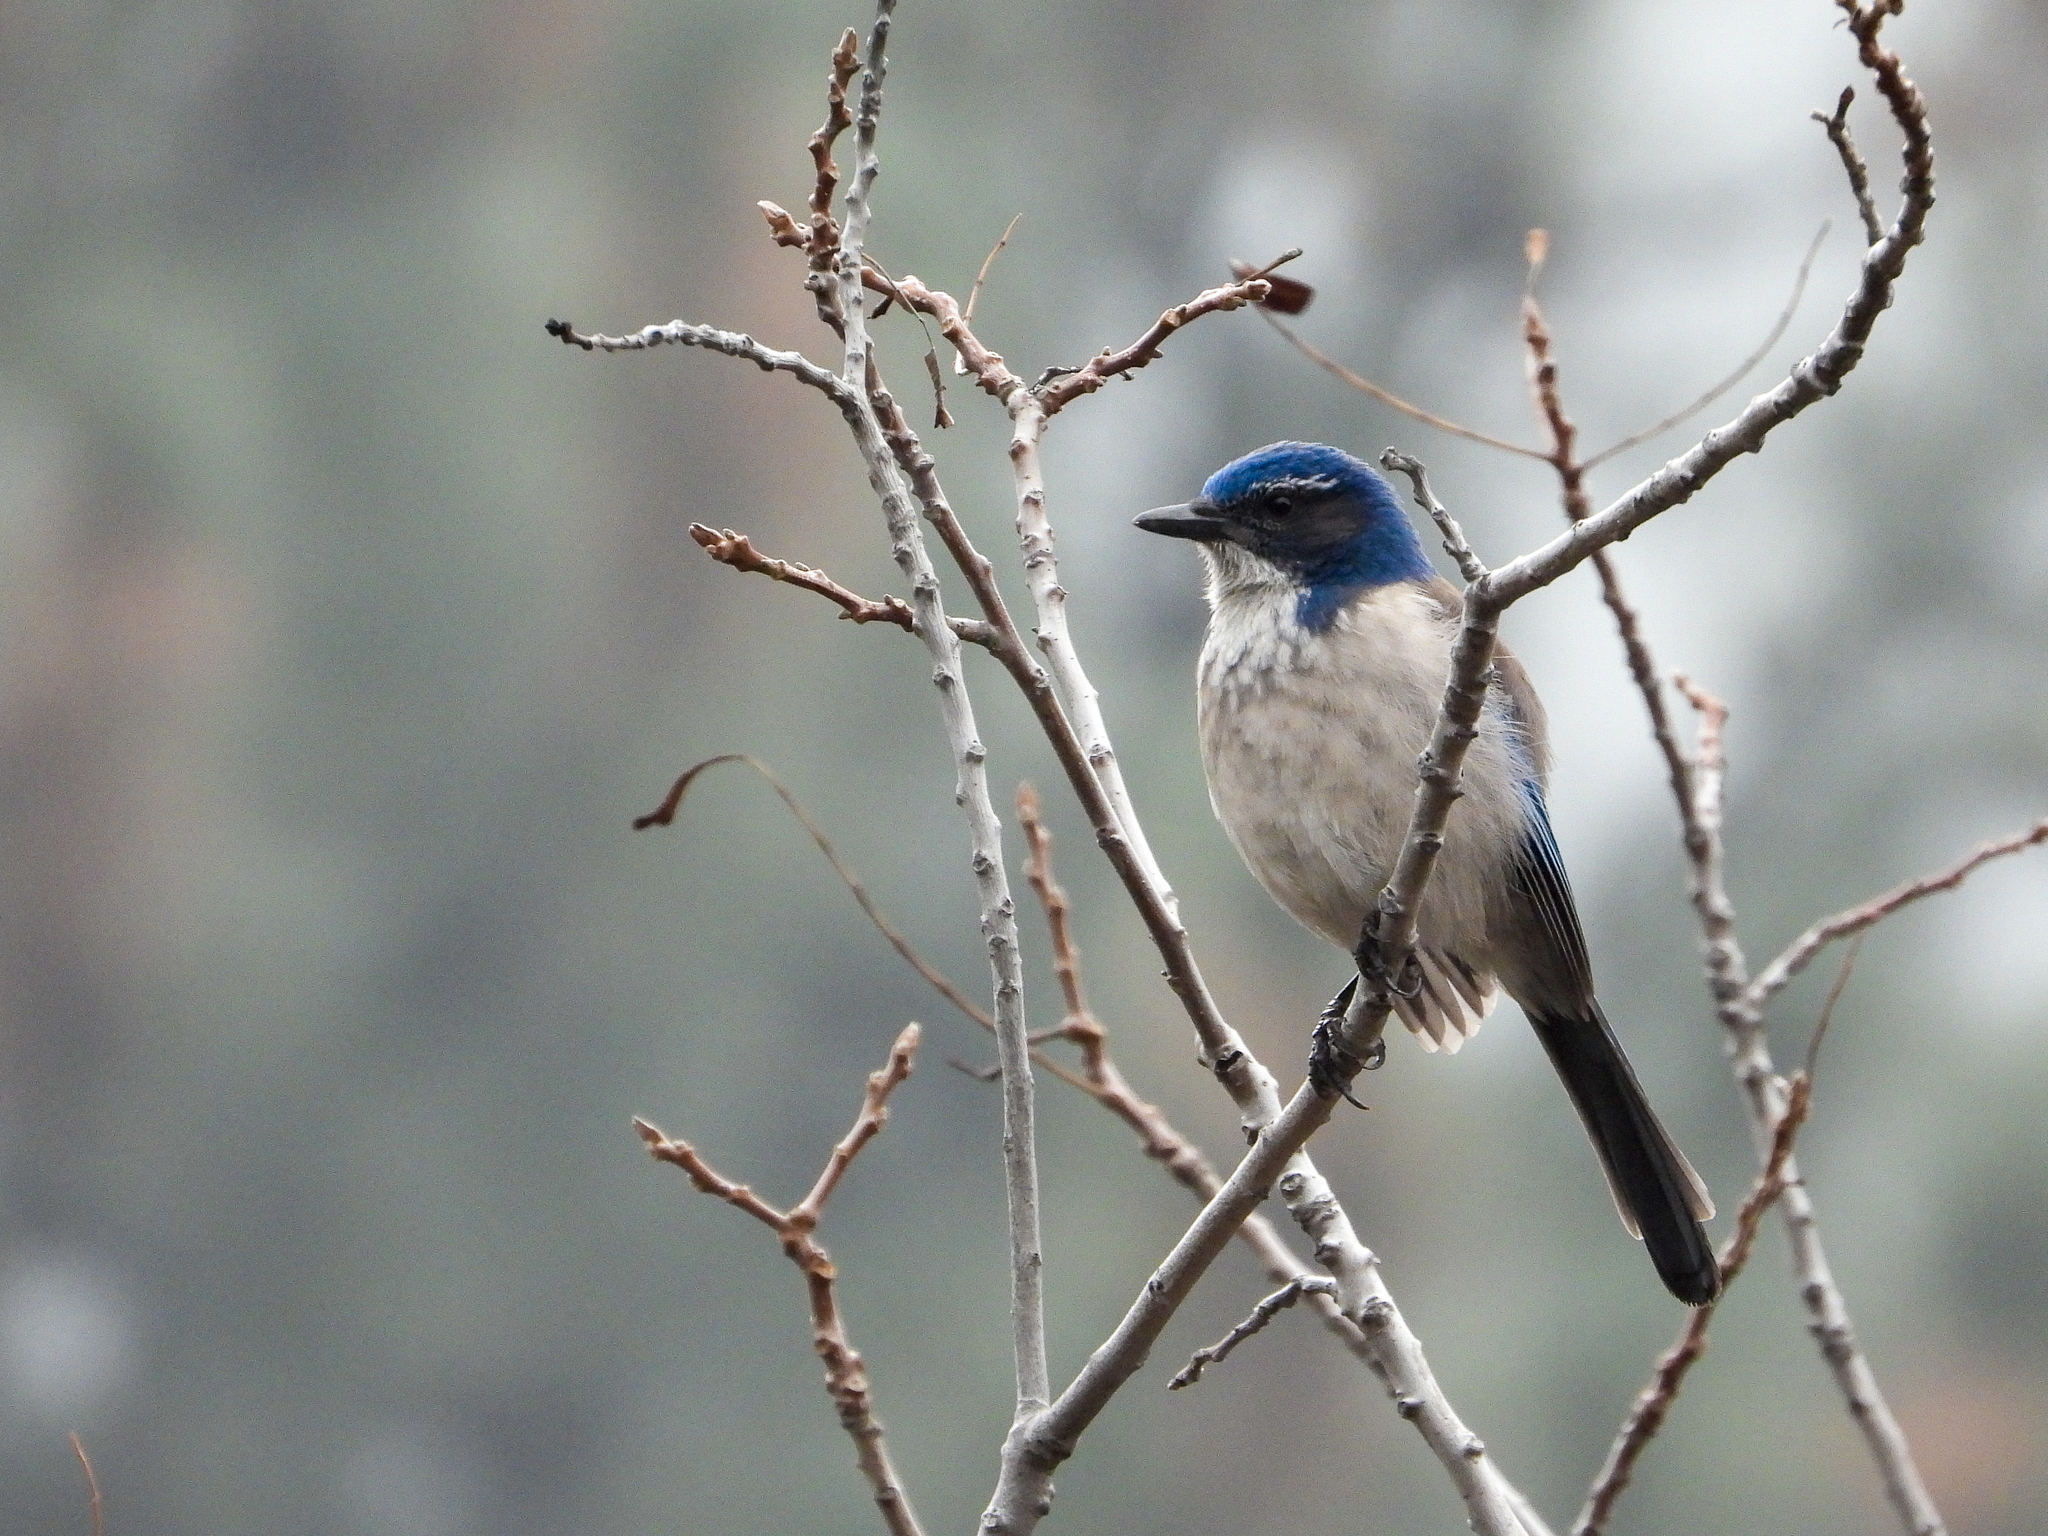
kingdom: Animalia
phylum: Chordata
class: Aves
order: Passeriformes
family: Corvidae
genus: Aphelocoma
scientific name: Aphelocoma californica
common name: California scrub-jay
